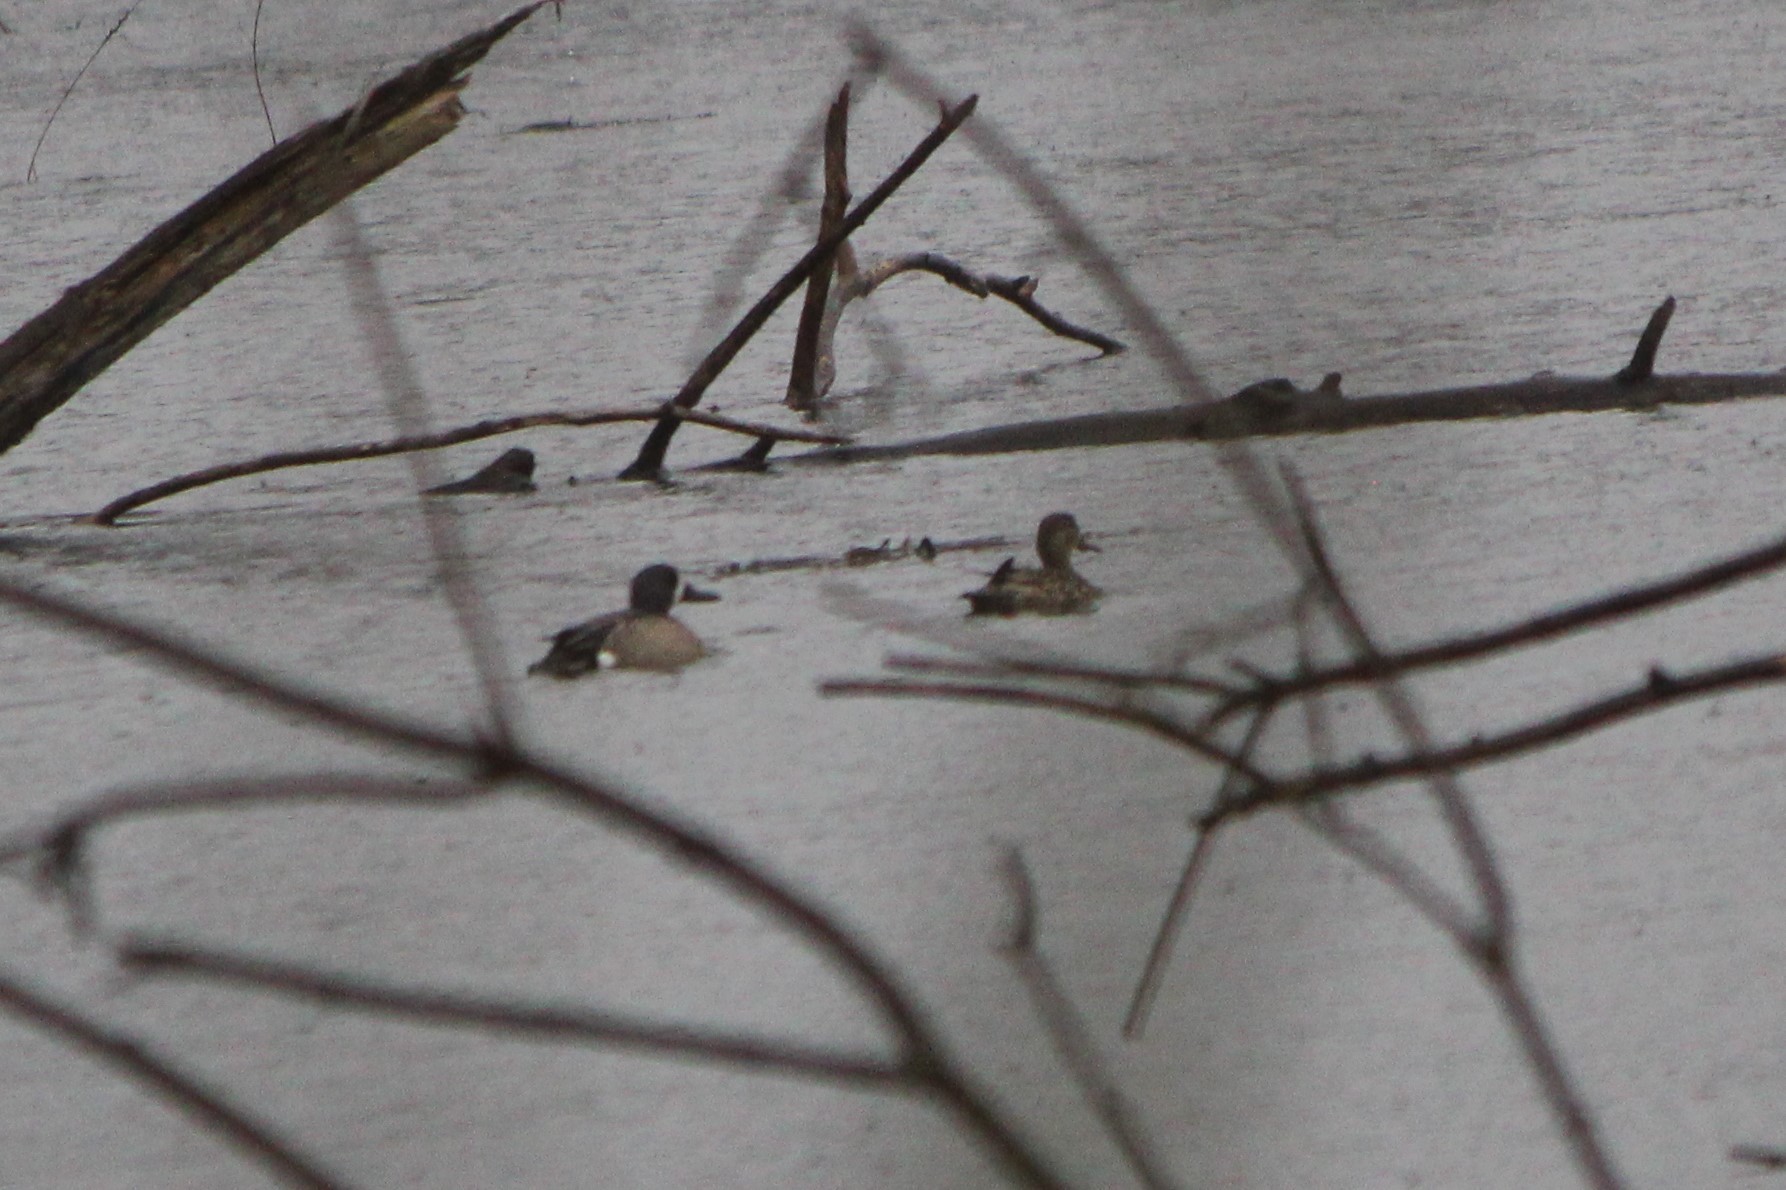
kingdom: Animalia
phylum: Chordata
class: Aves
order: Anseriformes
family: Anatidae
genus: Spatula
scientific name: Spatula discors
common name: Blue-winged teal
